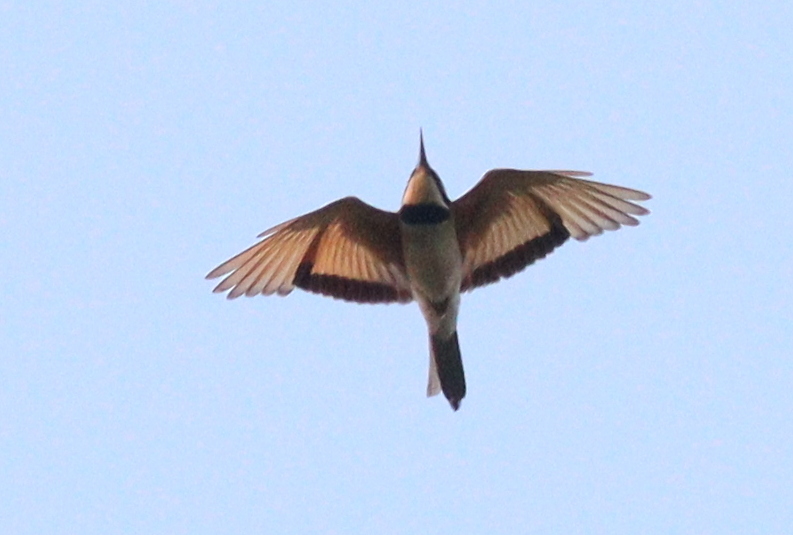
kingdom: Animalia
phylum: Chordata
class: Aves
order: Coraciiformes
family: Meropidae
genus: Merops
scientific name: Merops albicollis
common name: White-throated bee-eater
